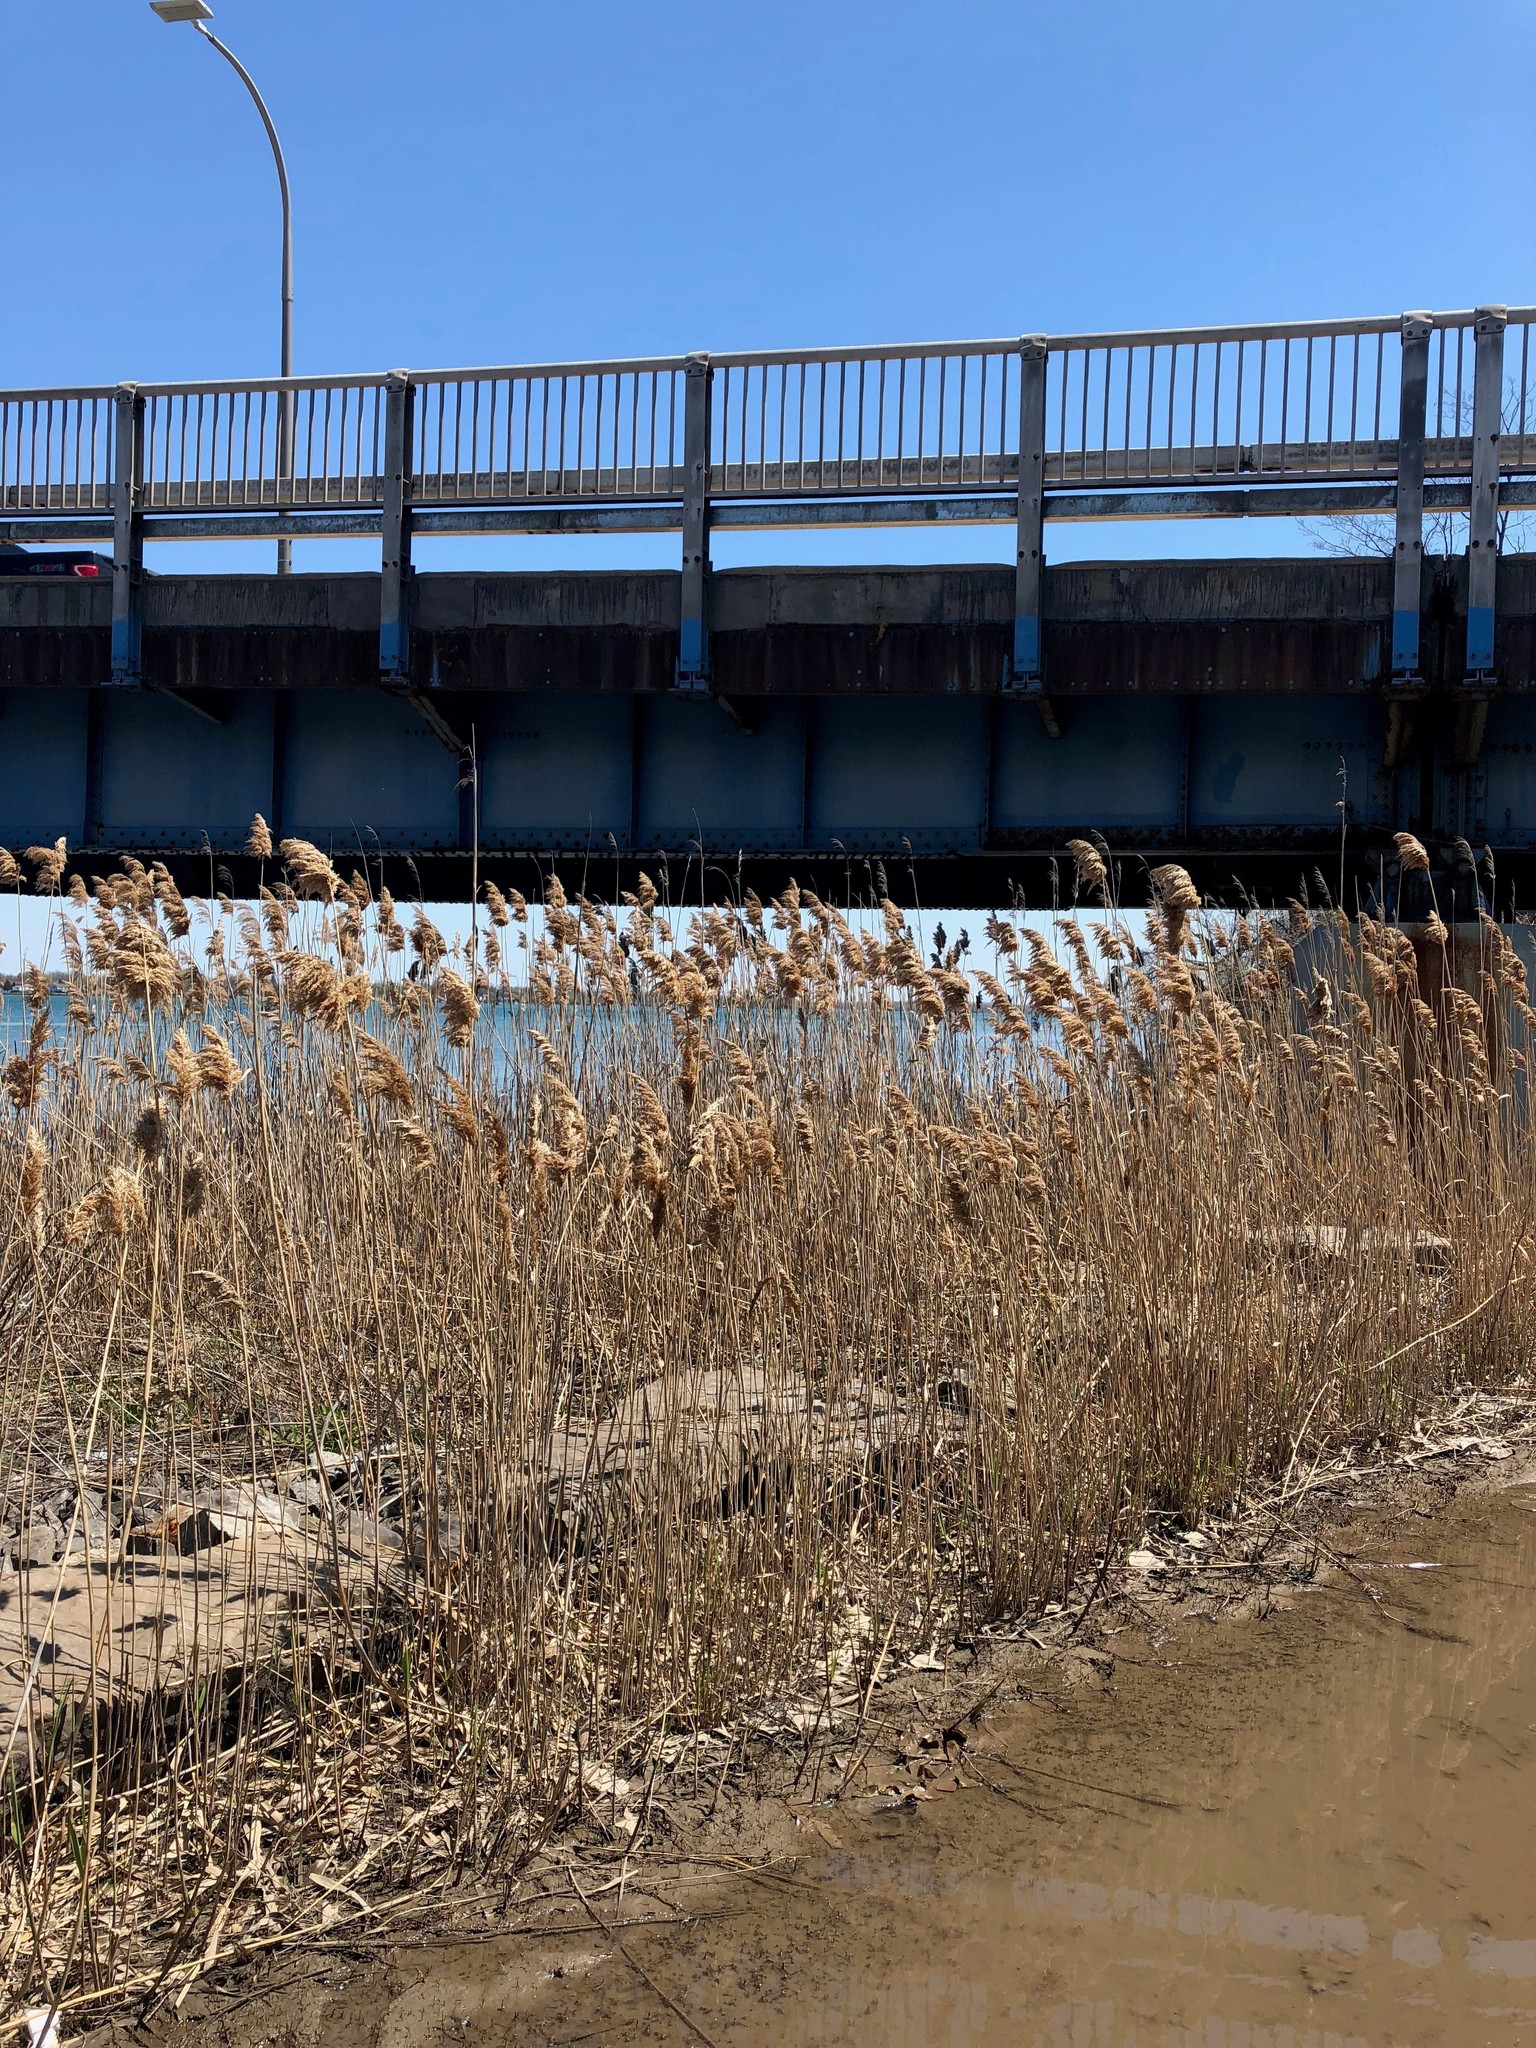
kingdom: Plantae
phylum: Tracheophyta
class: Liliopsida
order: Poales
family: Poaceae
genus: Phragmites
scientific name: Phragmites australis
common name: Common reed
